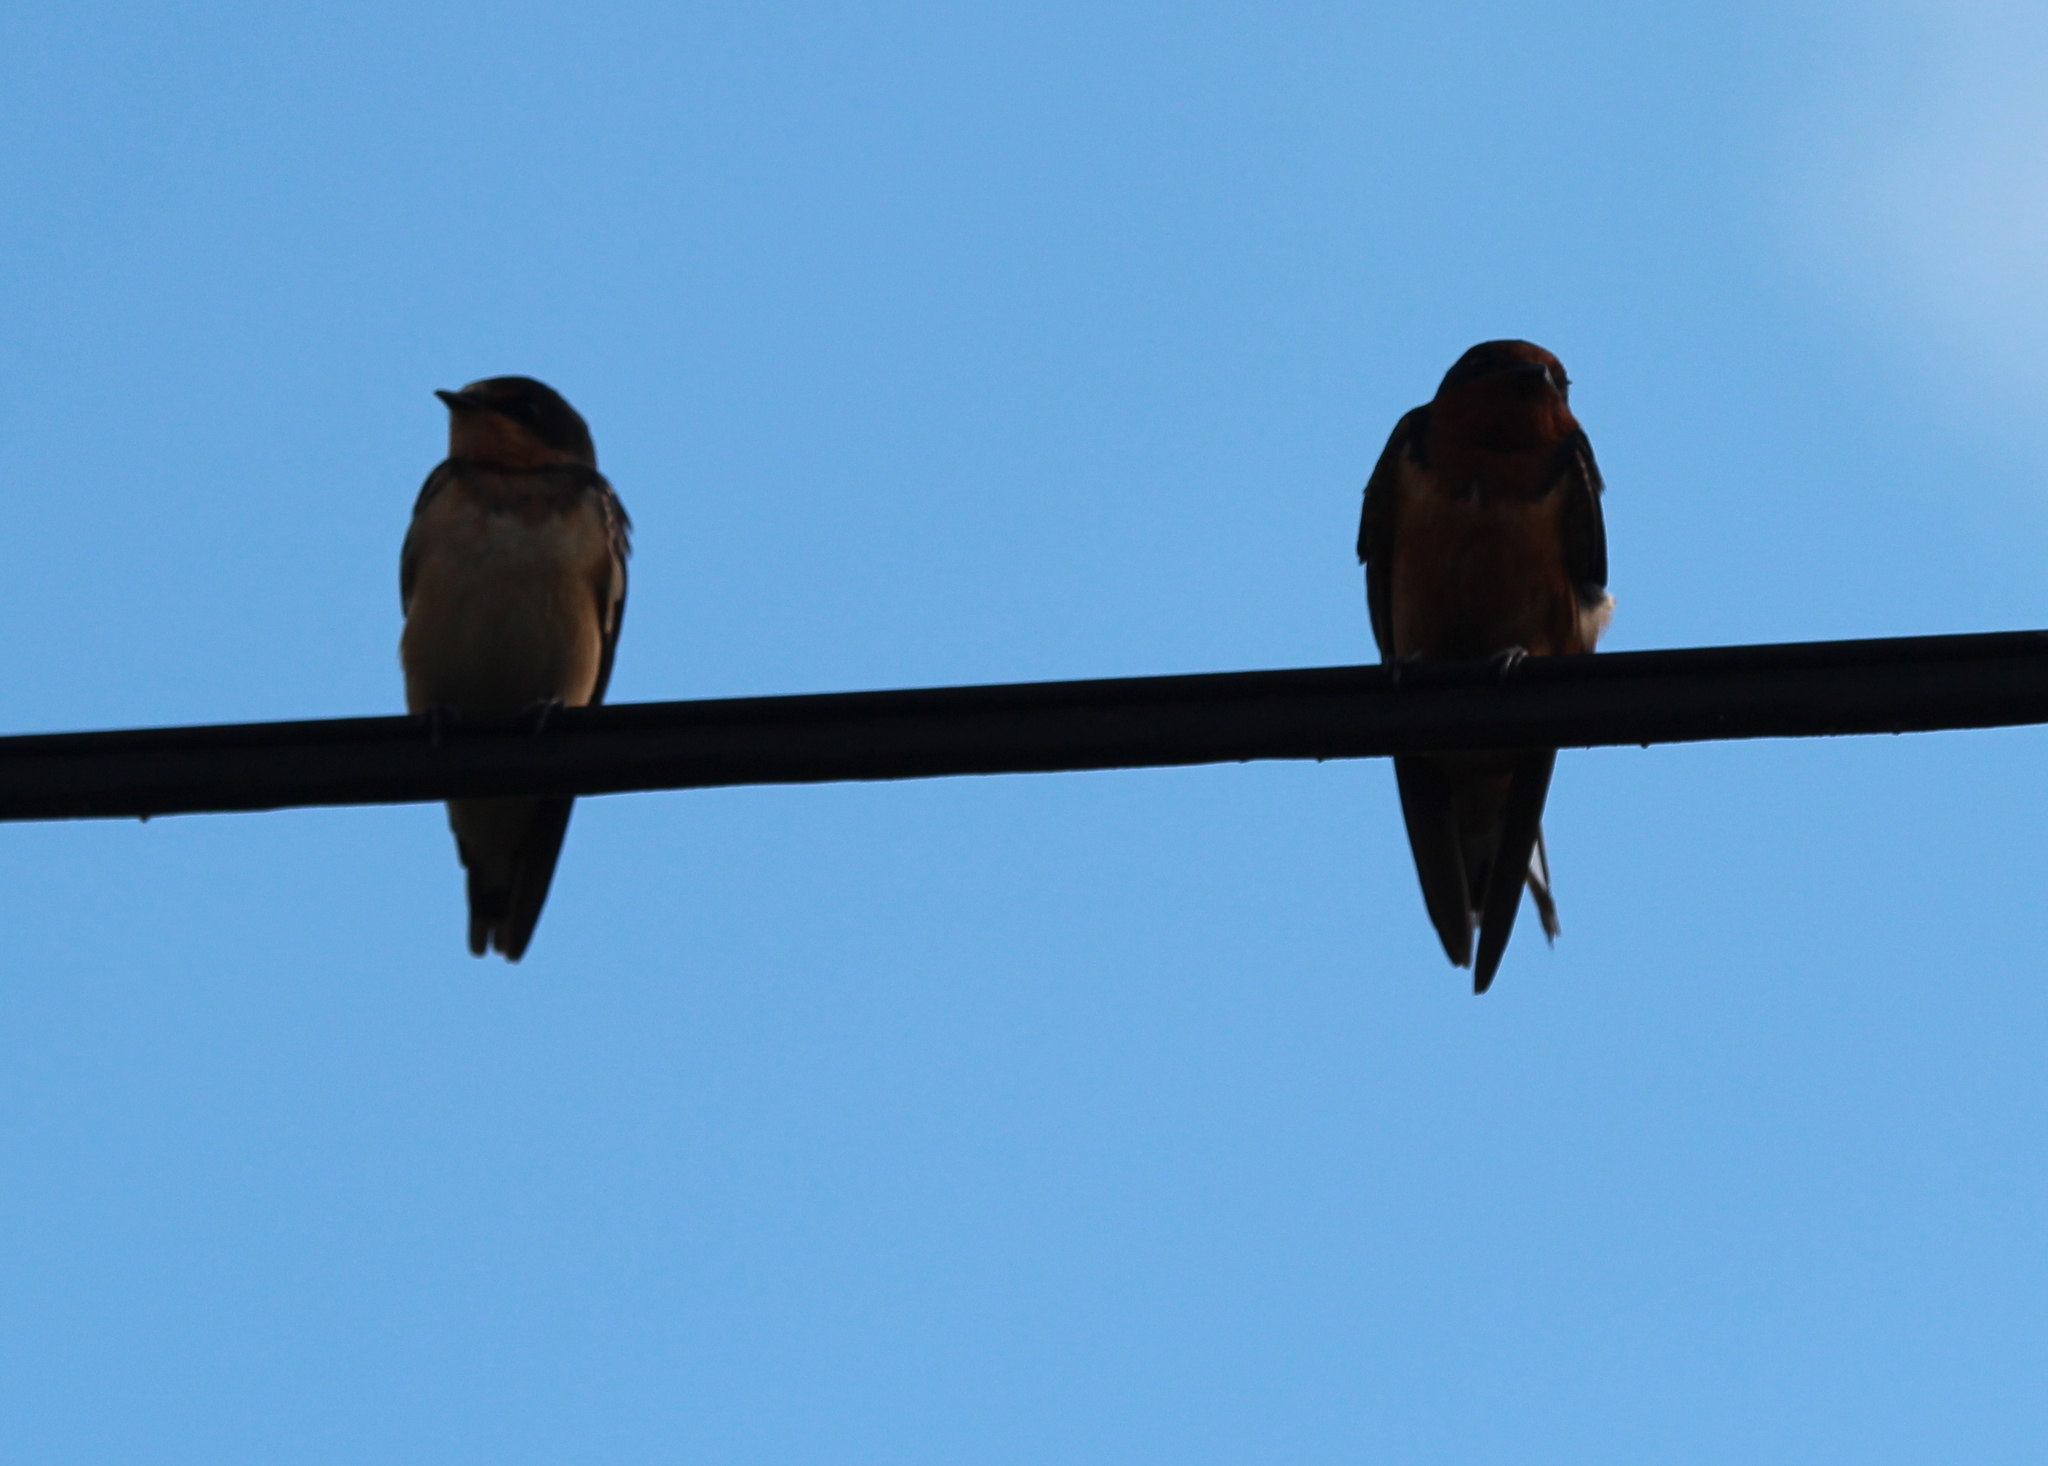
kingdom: Animalia
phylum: Chordata
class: Aves
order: Passeriformes
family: Hirundinidae
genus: Hirundo
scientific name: Hirundo rustica
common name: Barn swallow
